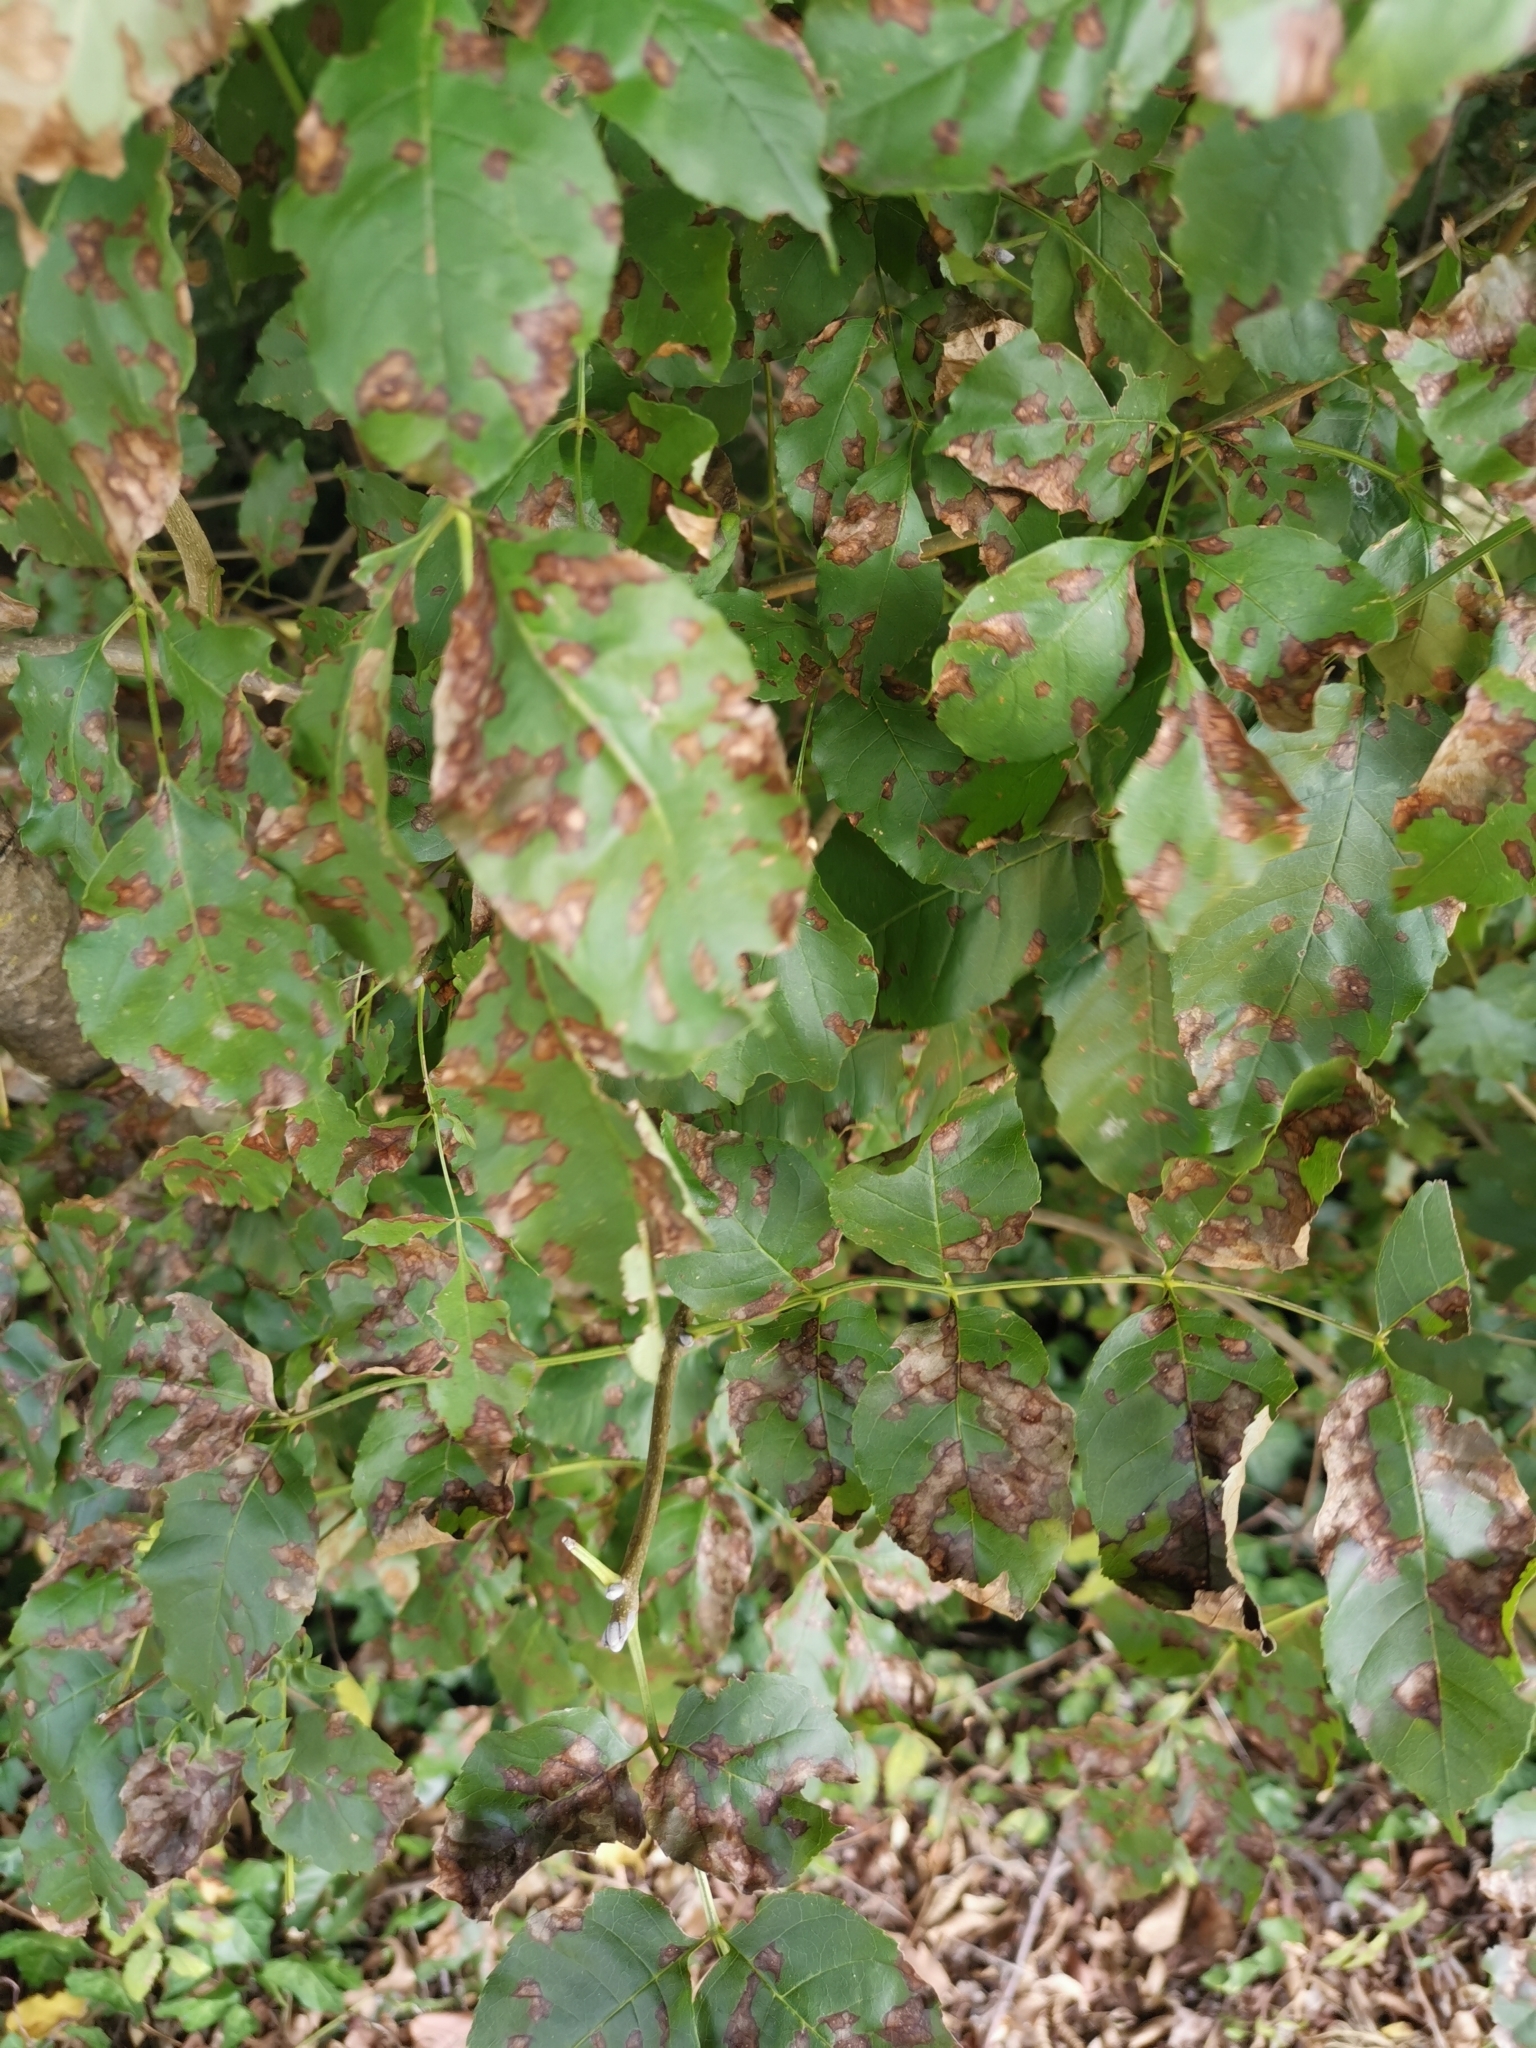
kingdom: Plantae
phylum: Tracheophyta
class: Magnoliopsida
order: Lamiales
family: Oleaceae
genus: Fraxinus
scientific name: Fraxinus ornus
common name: Manna ash
